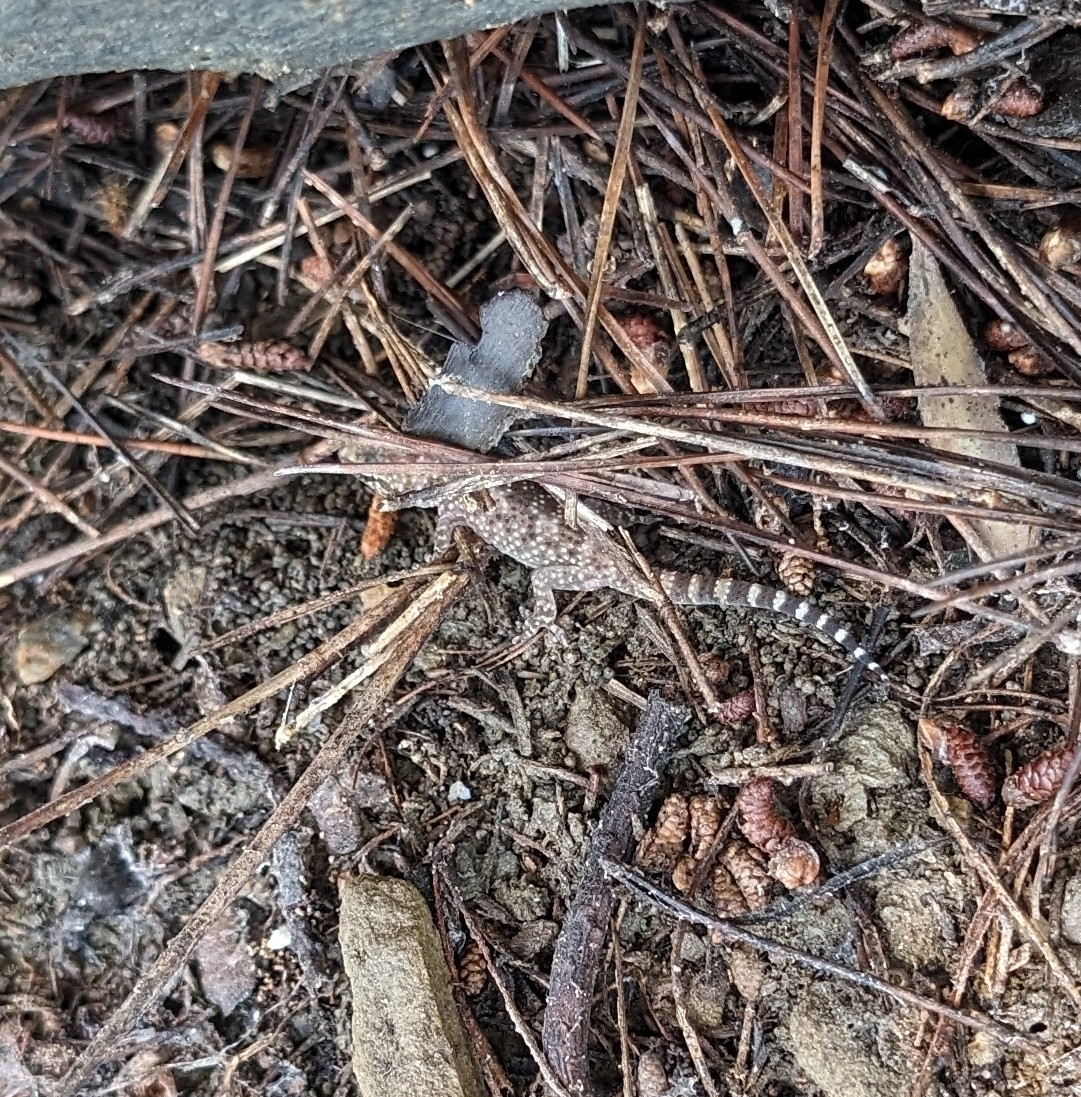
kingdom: Animalia
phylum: Chordata
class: Squamata
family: Gekkonidae
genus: Hemidactylus
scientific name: Hemidactylus turcicus
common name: Turkish gecko
